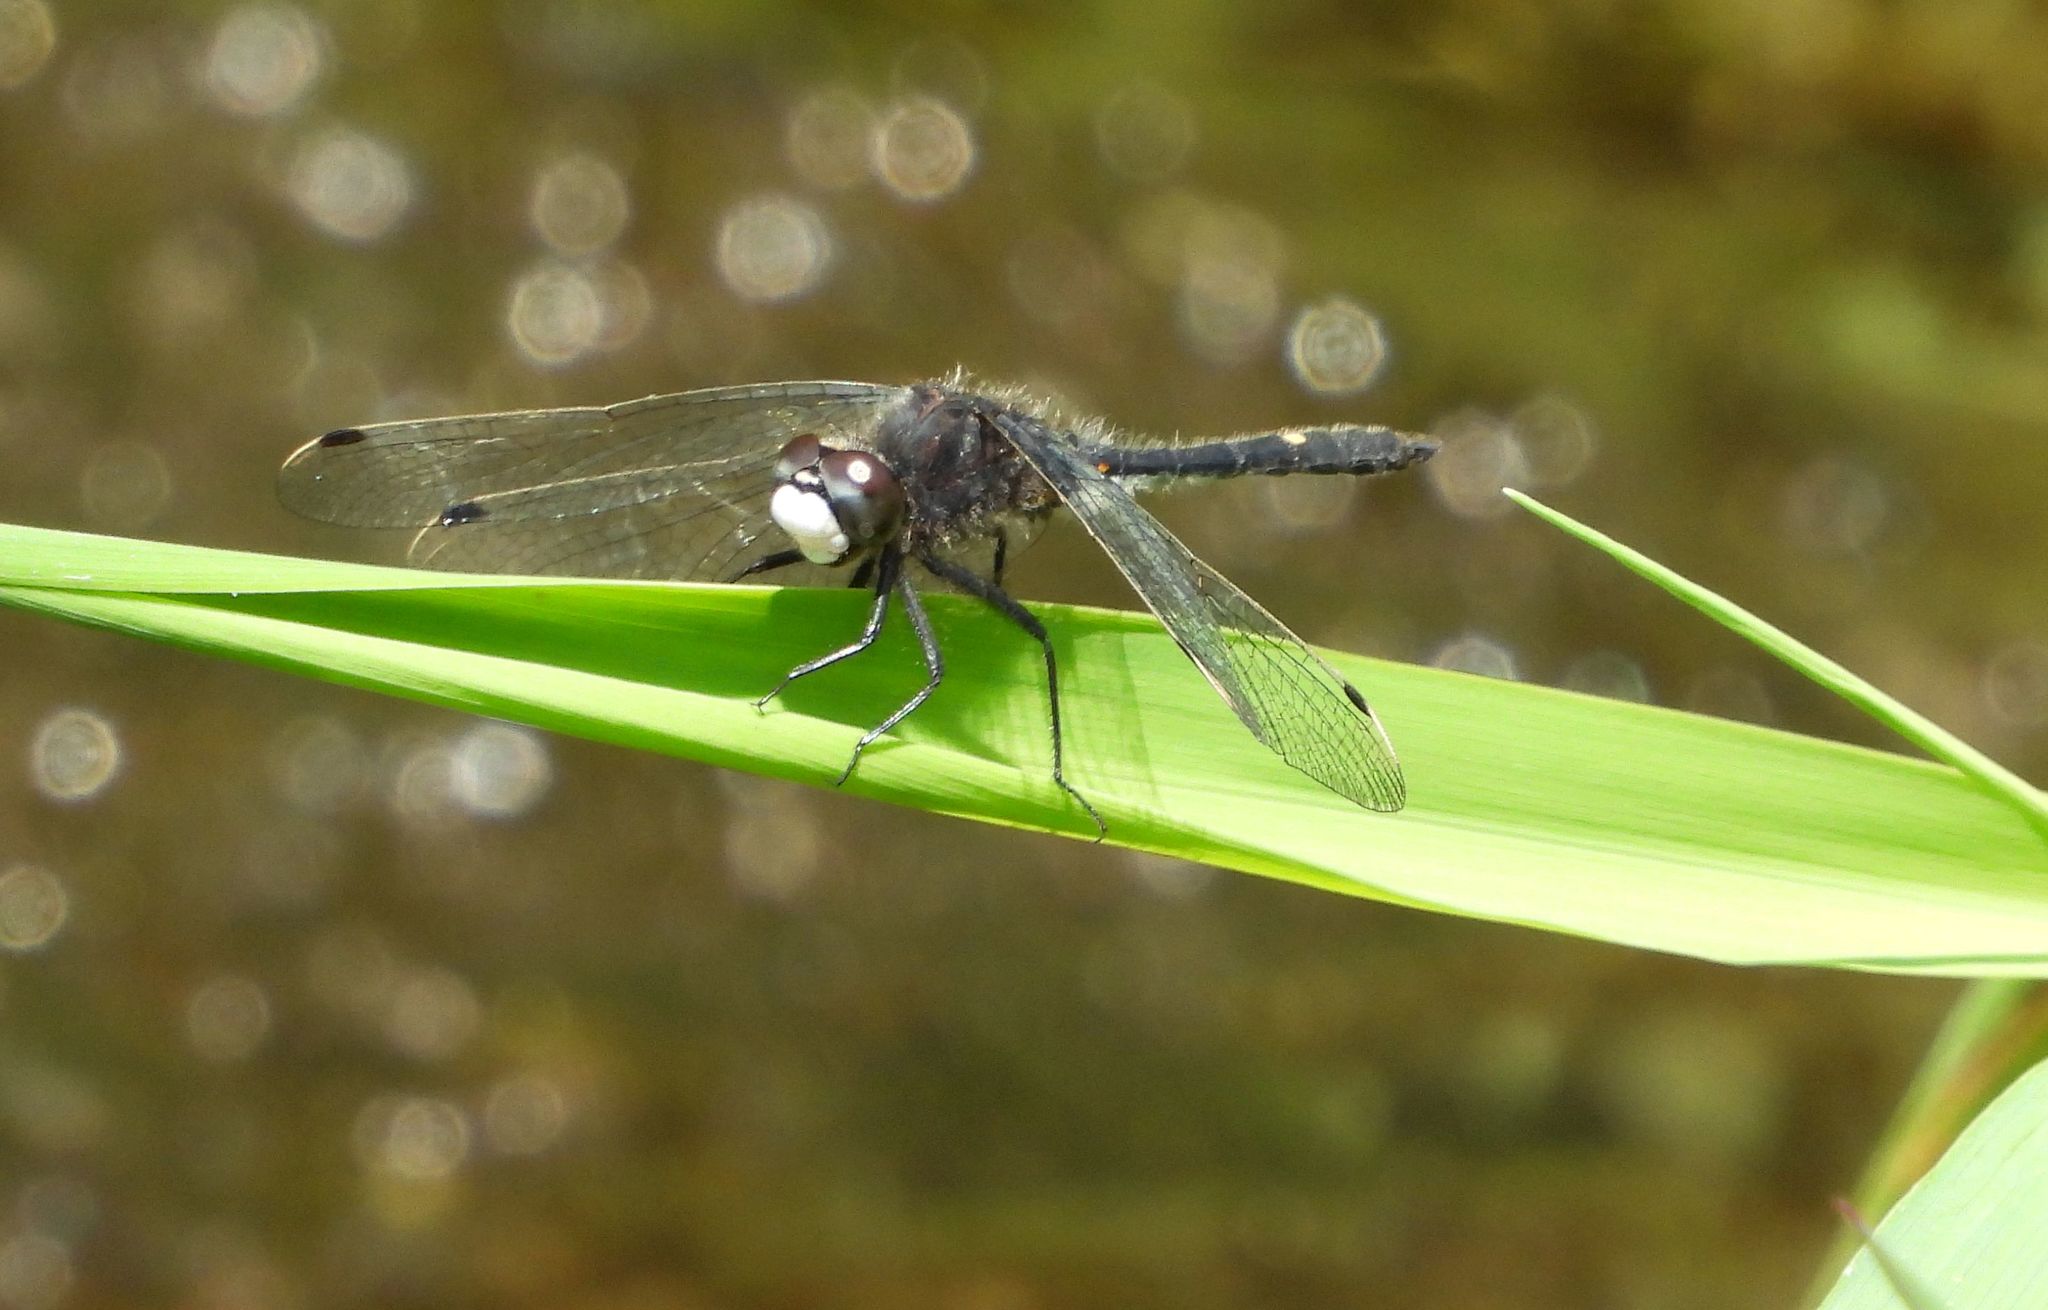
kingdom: Animalia
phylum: Arthropoda
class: Insecta
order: Odonata
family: Libellulidae
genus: Leucorrhinia
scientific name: Leucorrhinia intacta
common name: Dot-tailed whiteface
